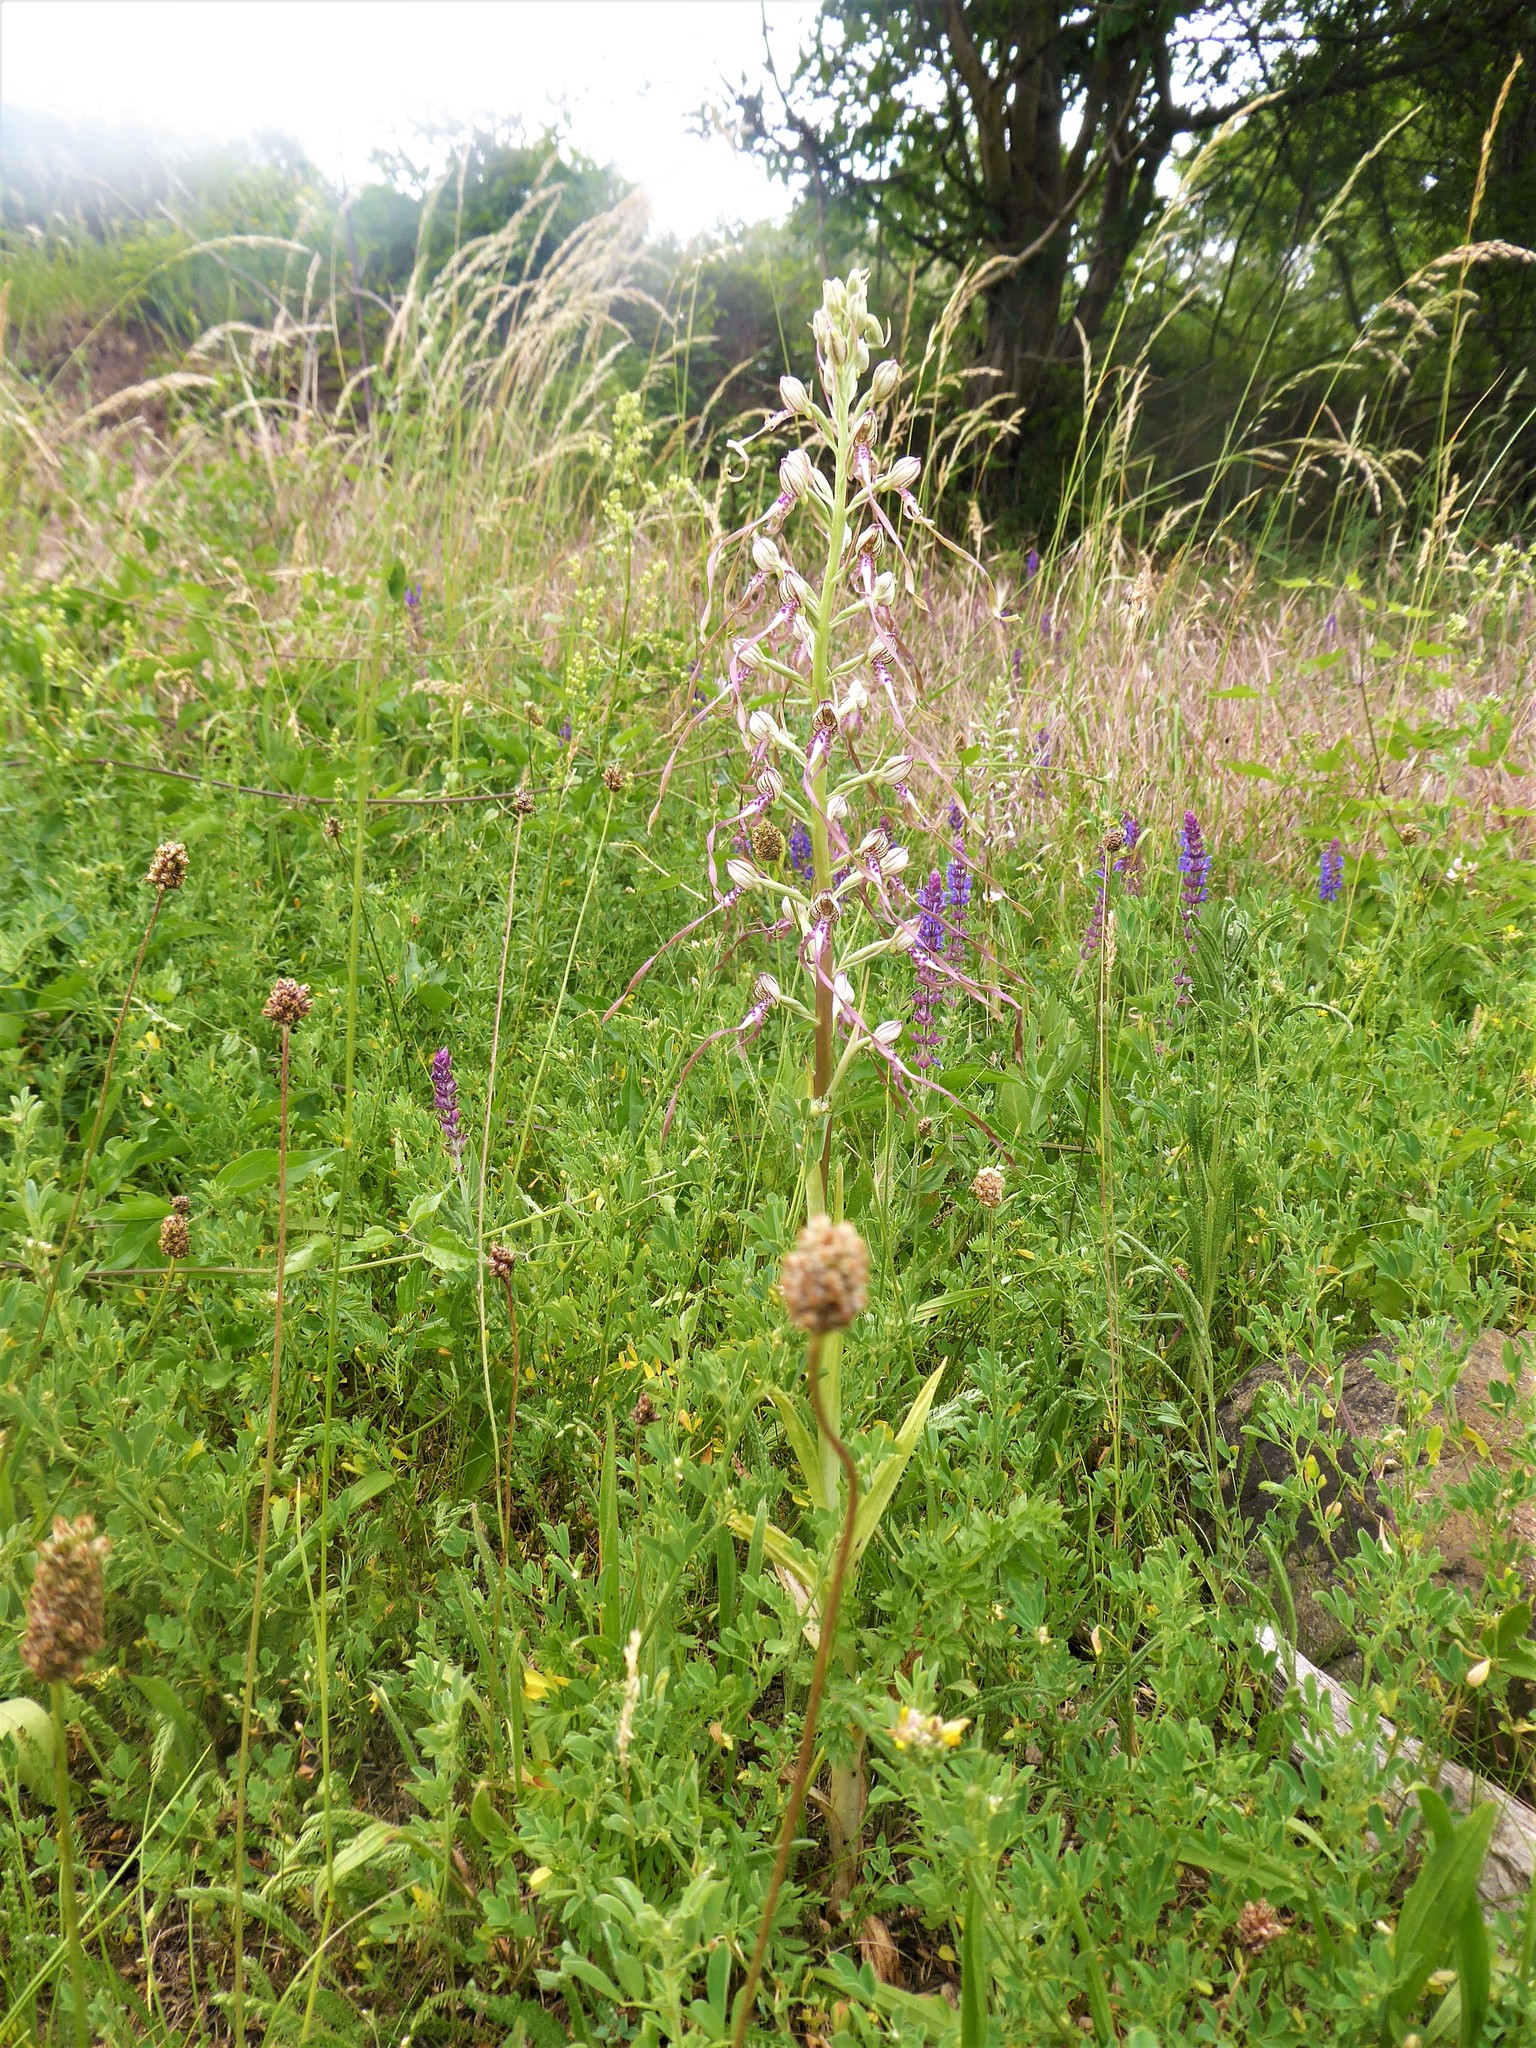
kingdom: Plantae
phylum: Tracheophyta
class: Liliopsida
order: Asparagales
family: Orchidaceae
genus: Himantoglossum
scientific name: Himantoglossum adriaticum
